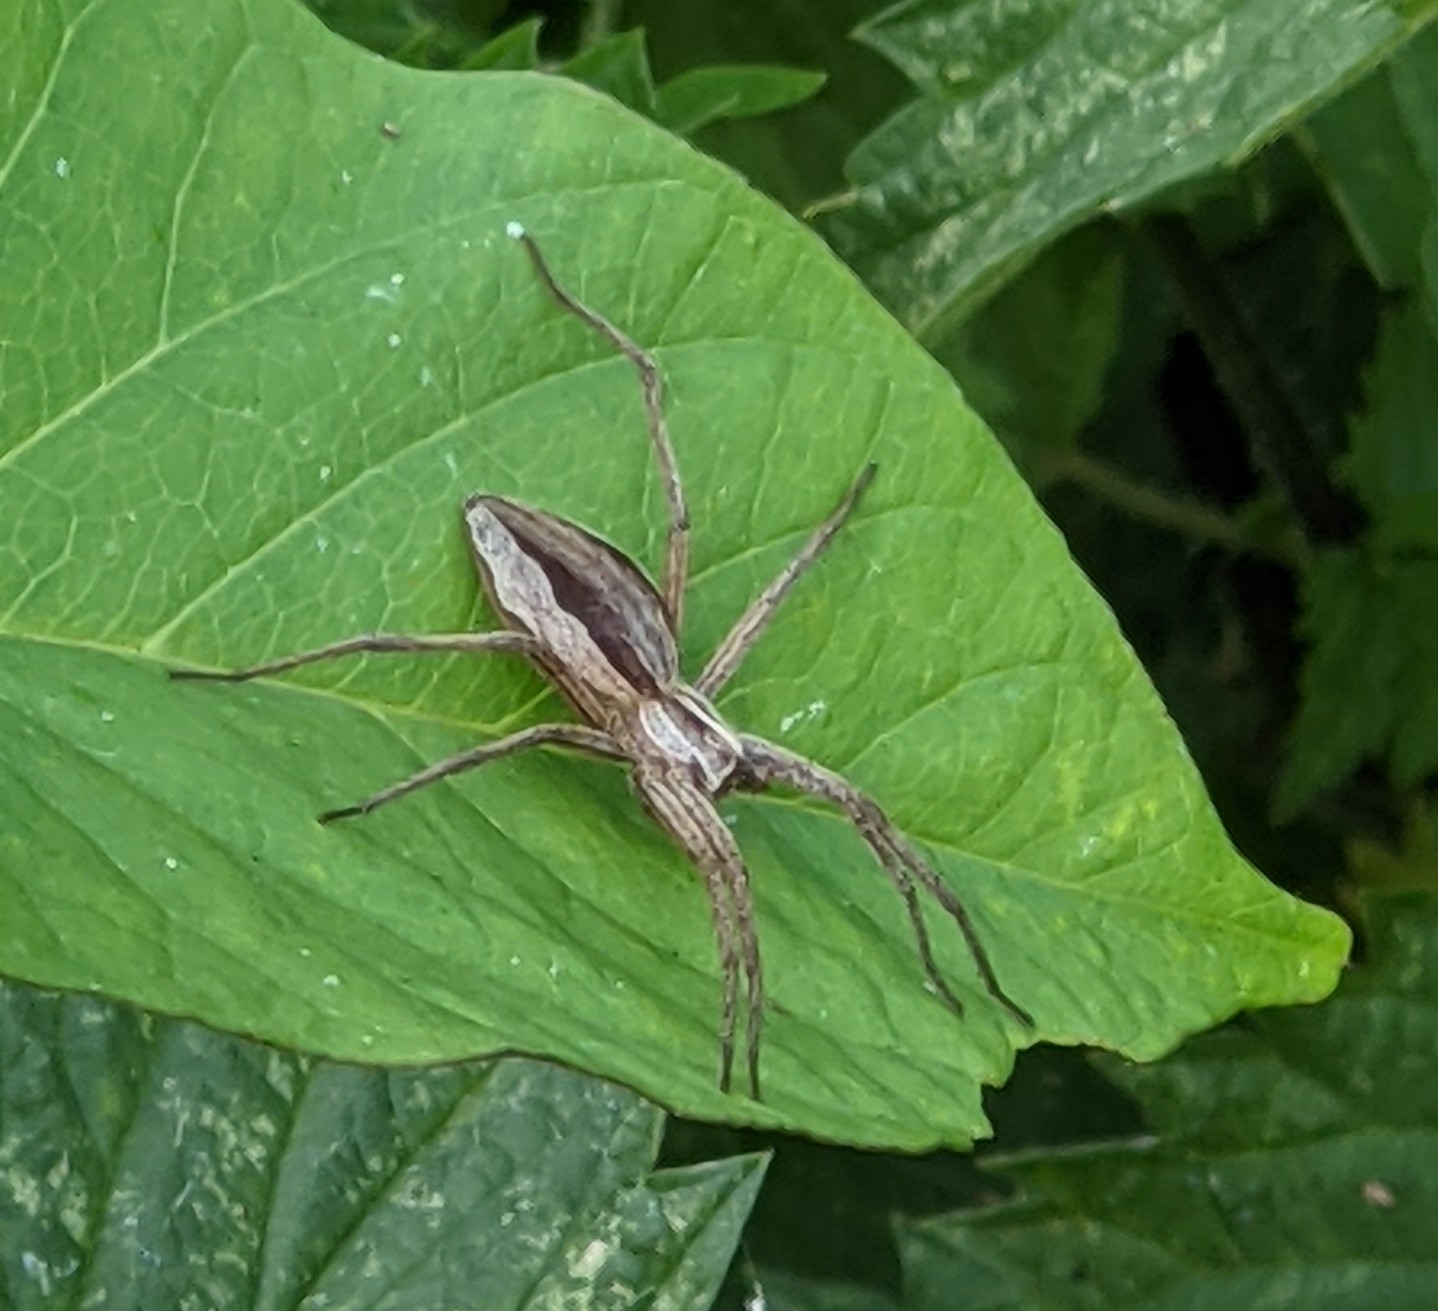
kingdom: Animalia
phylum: Arthropoda
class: Arachnida
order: Araneae
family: Pisauridae
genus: Pisaura
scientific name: Pisaura mirabilis
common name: Tent spider
